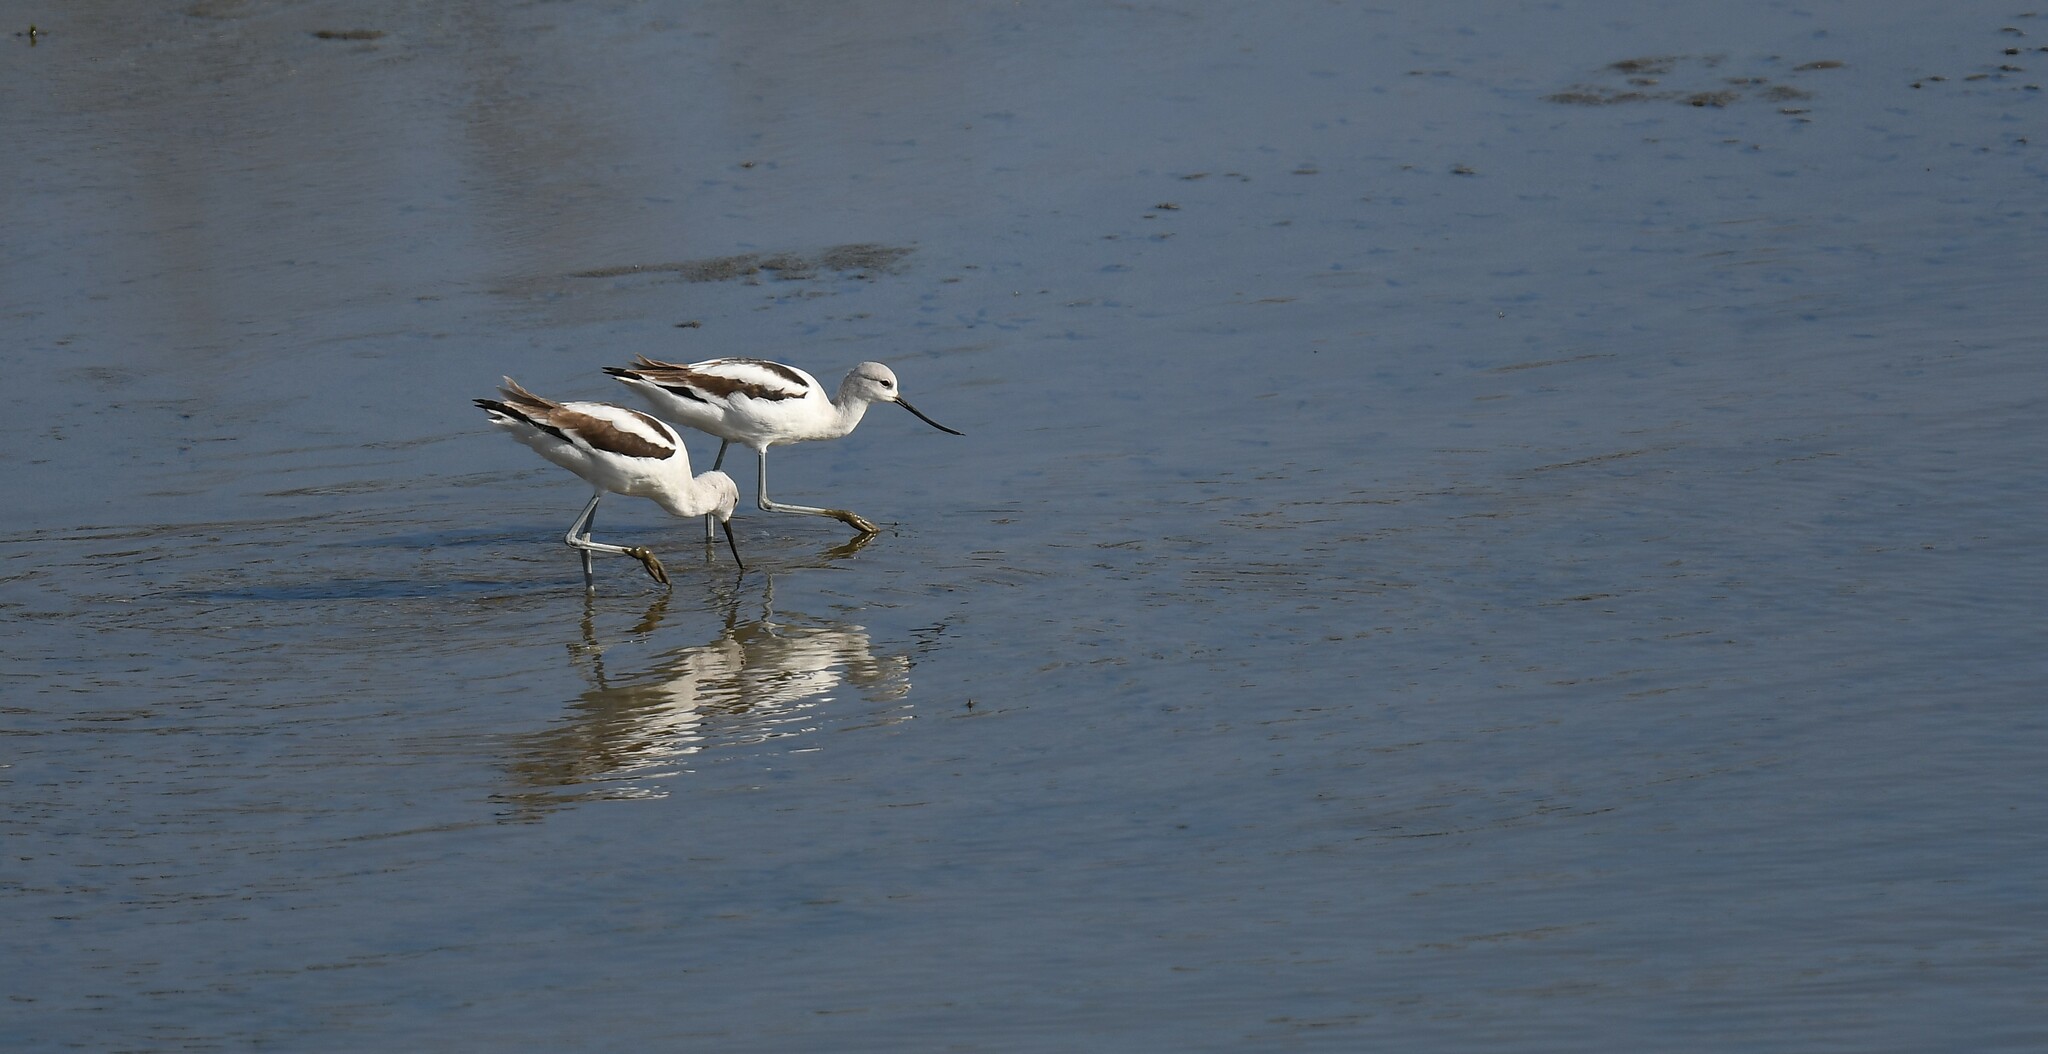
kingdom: Animalia
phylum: Chordata
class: Aves
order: Charadriiformes
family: Recurvirostridae
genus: Recurvirostra
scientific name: Recurvirostra americana
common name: American avocet
